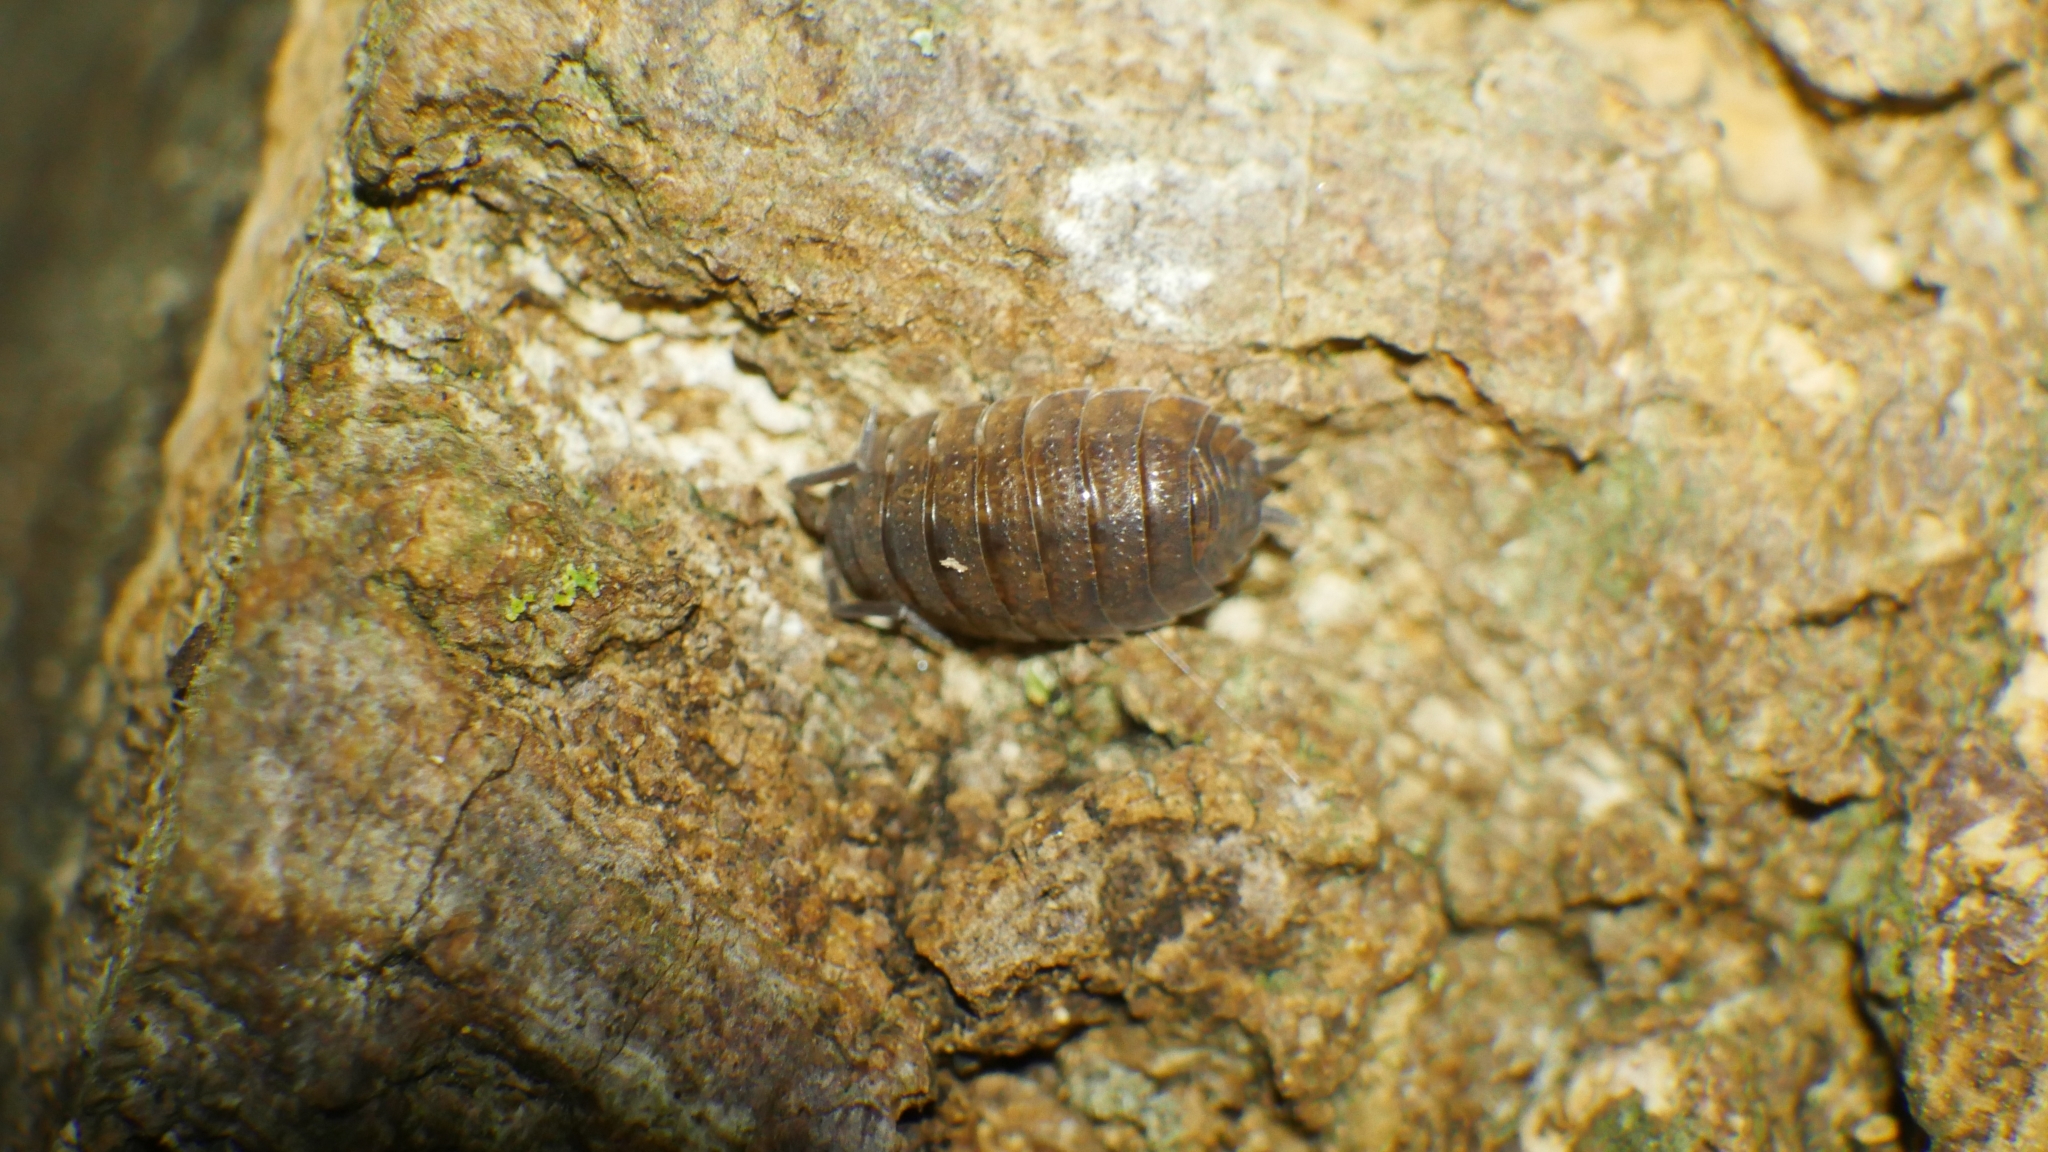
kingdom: Animalia
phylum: Arthropoda
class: Malacostraca
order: Isopoda
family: Porcellionidae
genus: Porcellio
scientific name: Porcellio scaber
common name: Common rough woodlouse
